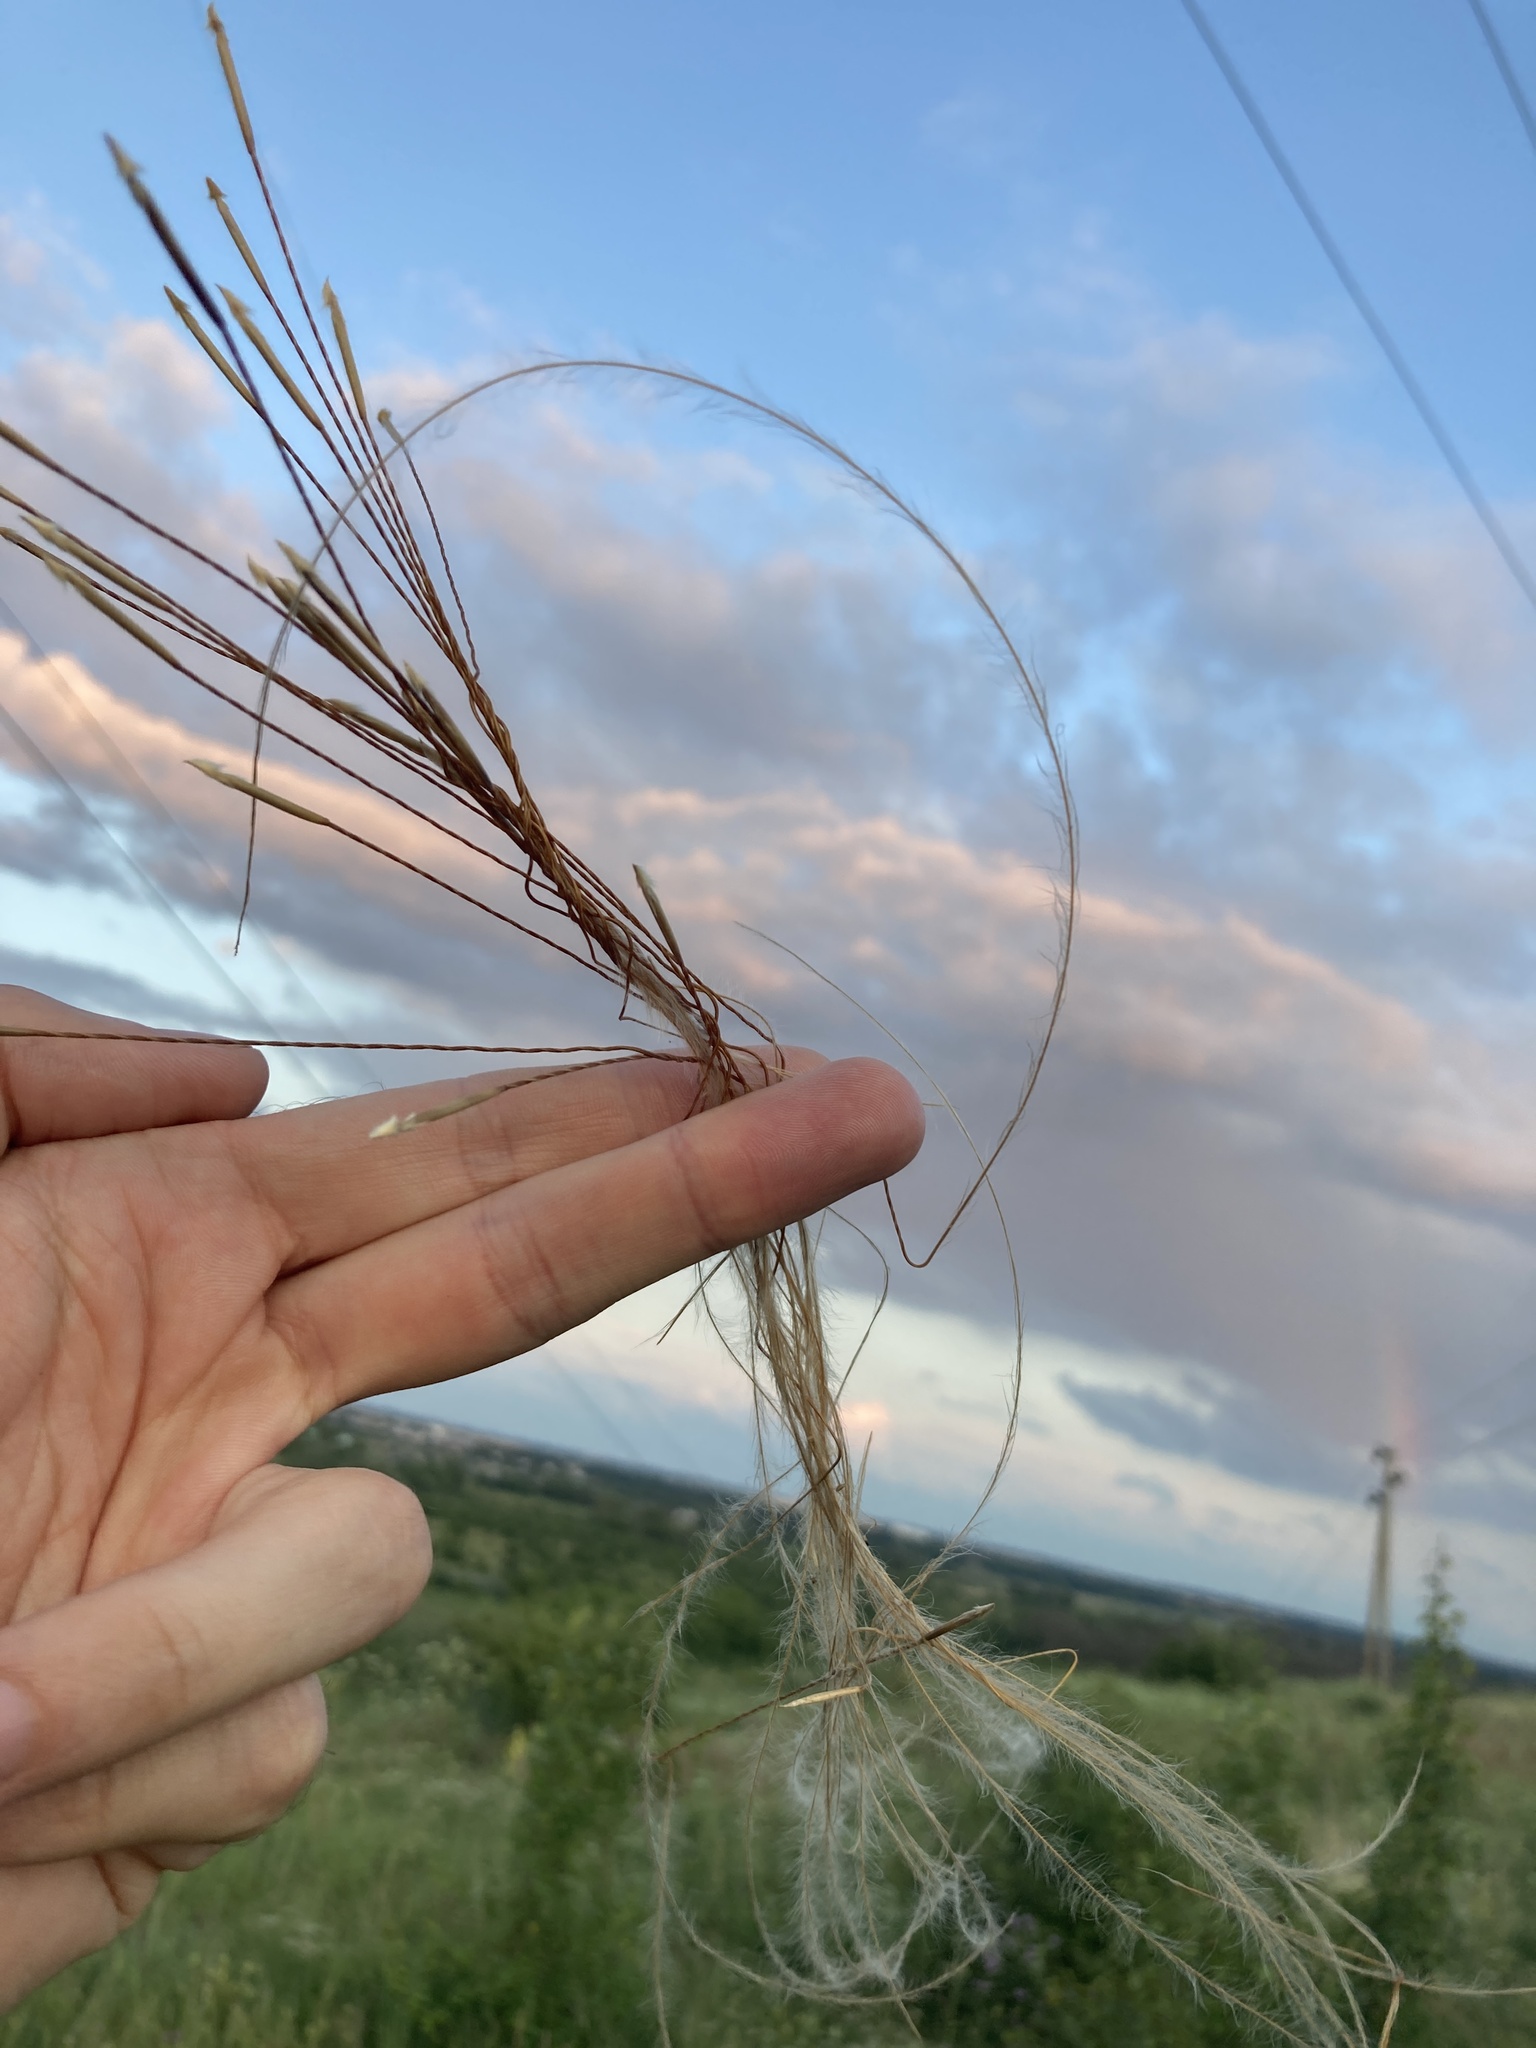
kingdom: Plantae
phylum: Tracheophyta
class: Liliopsida
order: Poales
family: Poaceae
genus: Stipa
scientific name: Stipa pennata
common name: European feather grass
